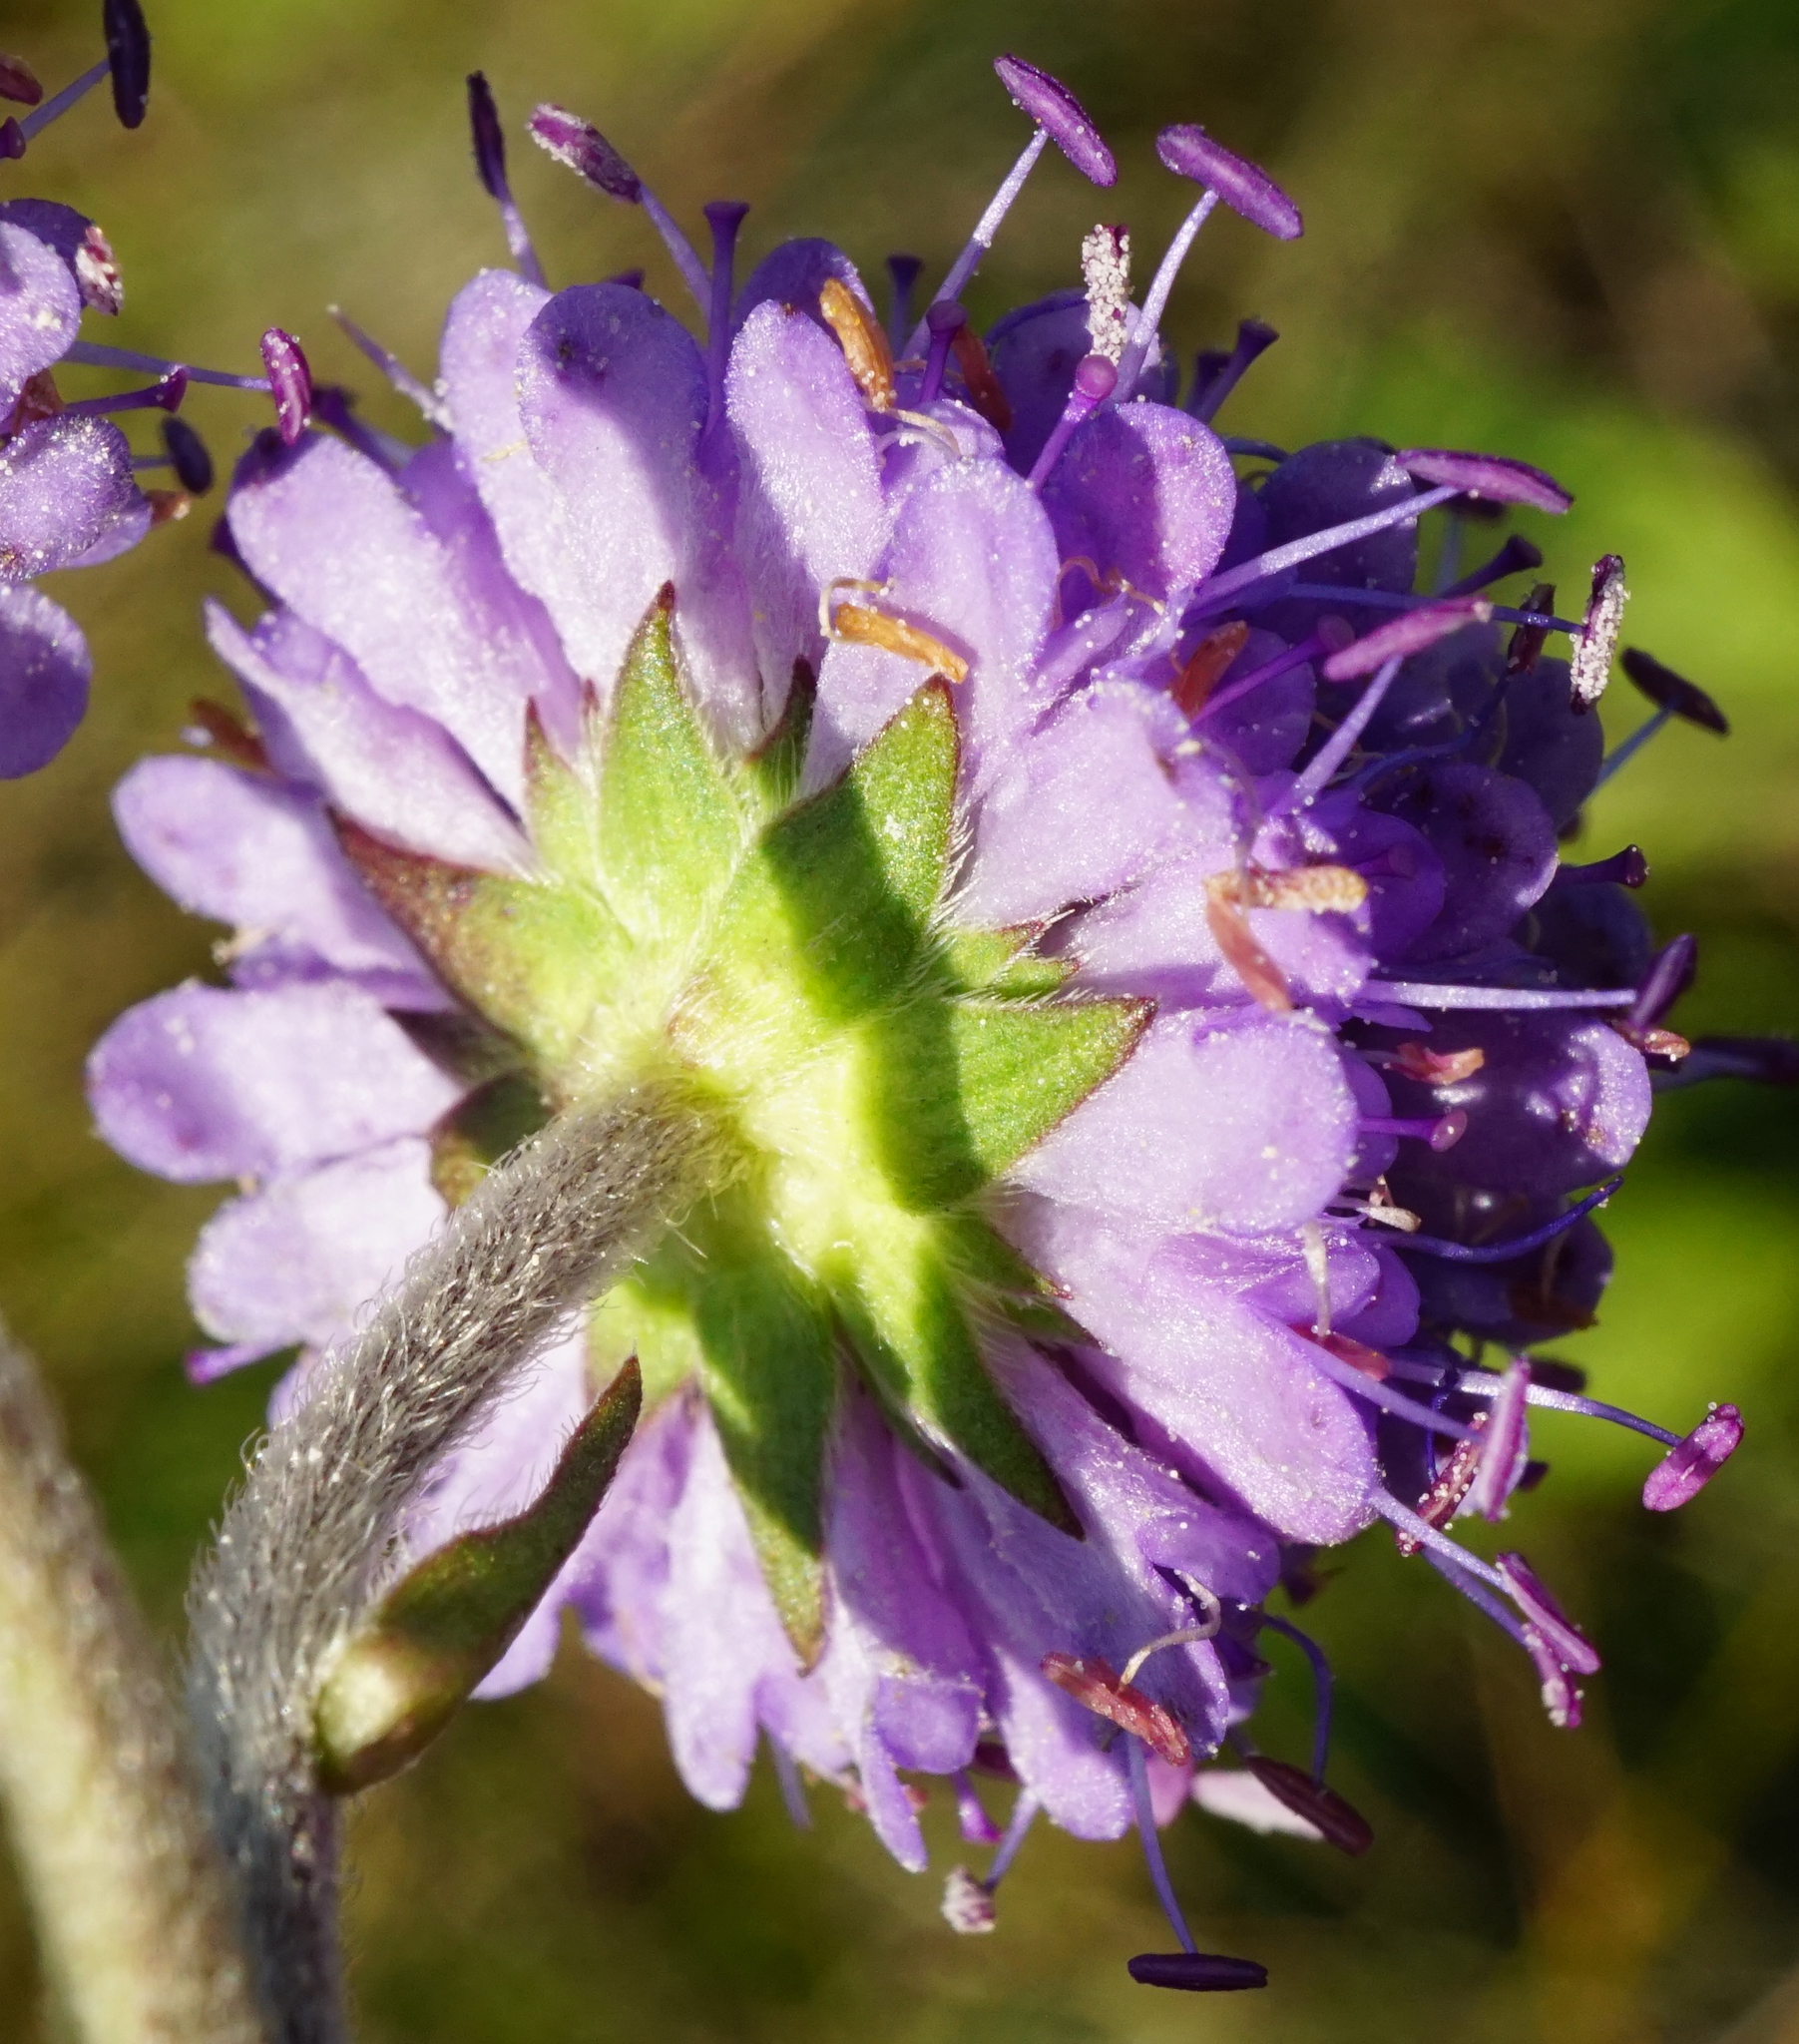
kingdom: Plantae
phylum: Tracheophyta
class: Magnoliopsida
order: Dipsacales
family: Caprifoliaceae
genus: Succisa
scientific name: Succisa pratensis
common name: Devil's-bit
